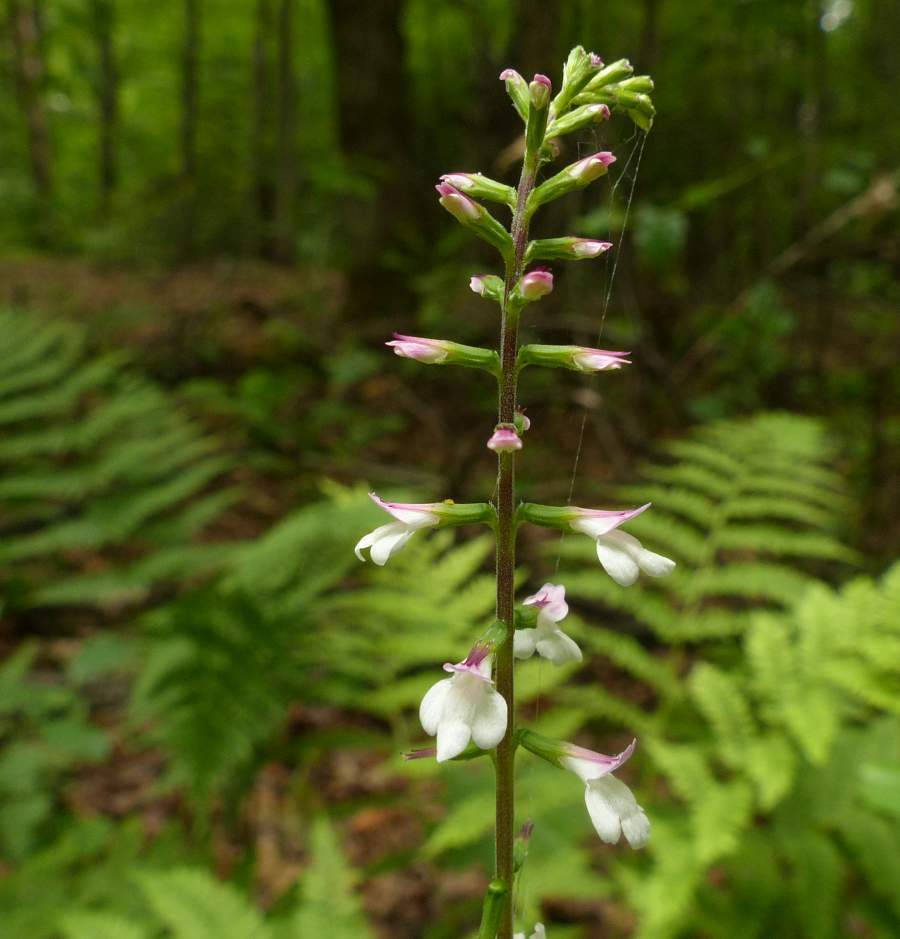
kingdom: Plantae
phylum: Tracheophyta
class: Magnoliopsida
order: Lamiales
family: Phrymaceae
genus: Phryma
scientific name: Phryma leptostachya
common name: American lopseed
